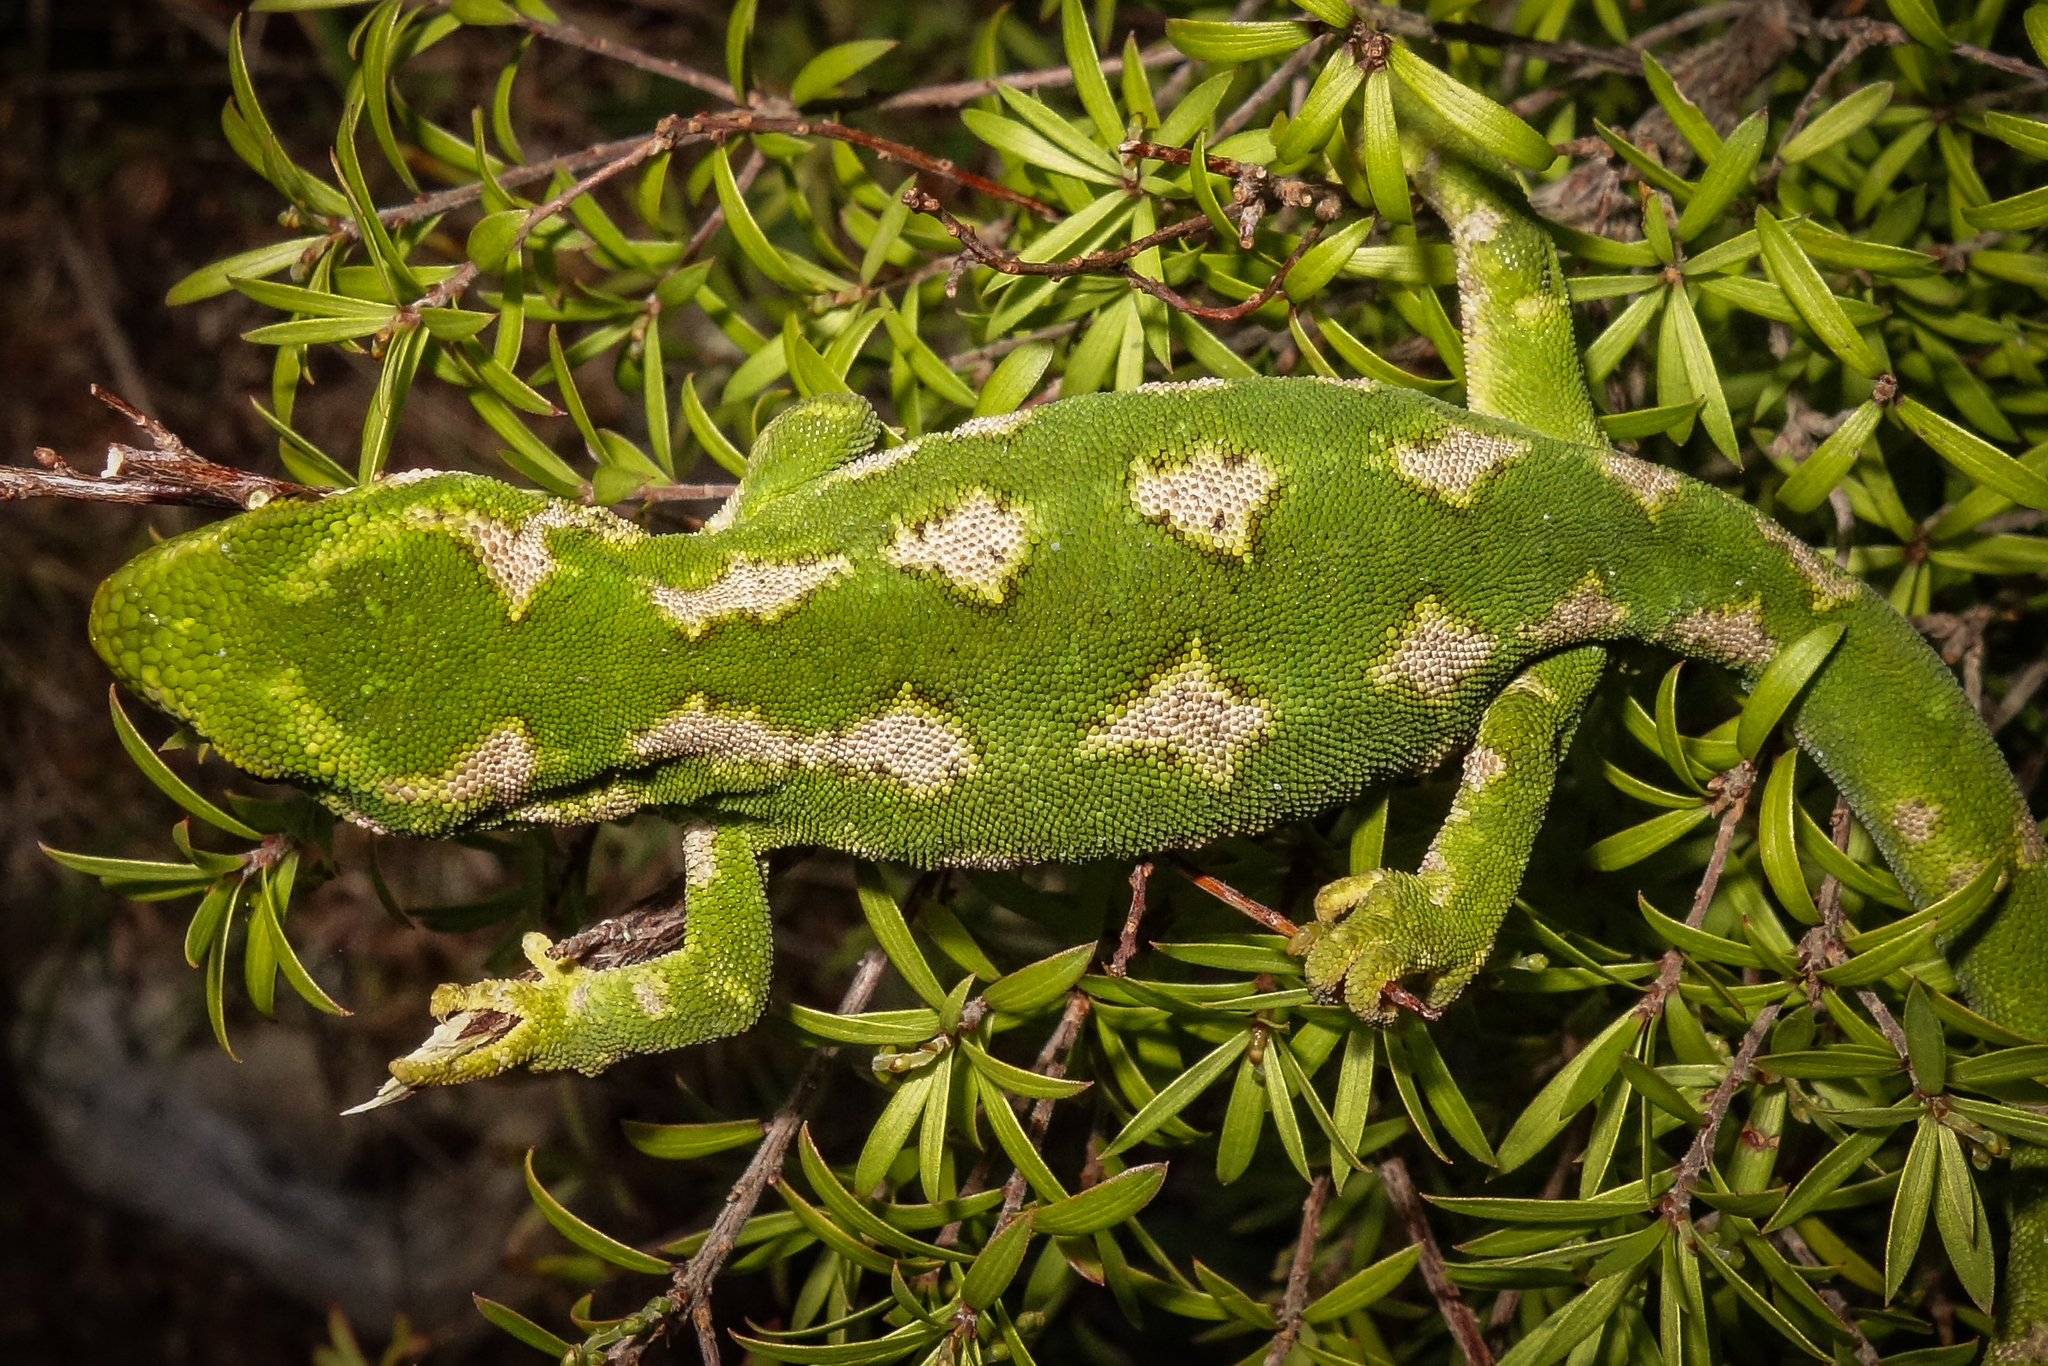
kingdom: Animalia
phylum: Chordata
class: Squamata
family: Diplodactylidae
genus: Naultinus
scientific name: Naultinus gemmeus
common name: Jewelled gecko
